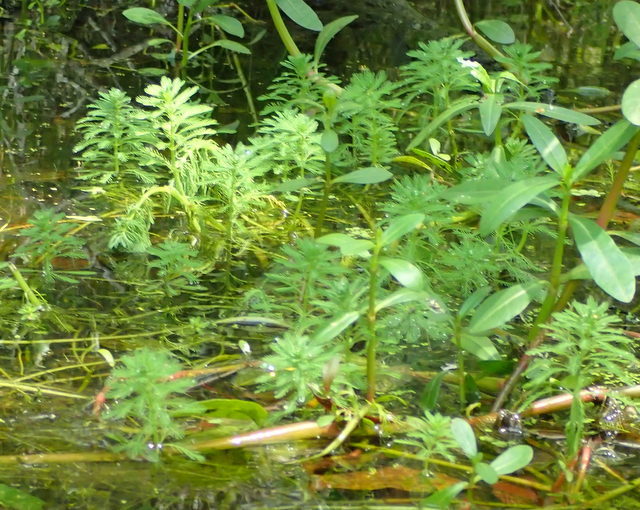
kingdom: Plantae
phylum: Tracheophyta
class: Magnoliopsida
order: Saxifragales
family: Haloragaceae
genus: Myriophyllum
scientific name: Myriophyllum aquaticum
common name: Parrot's feather
